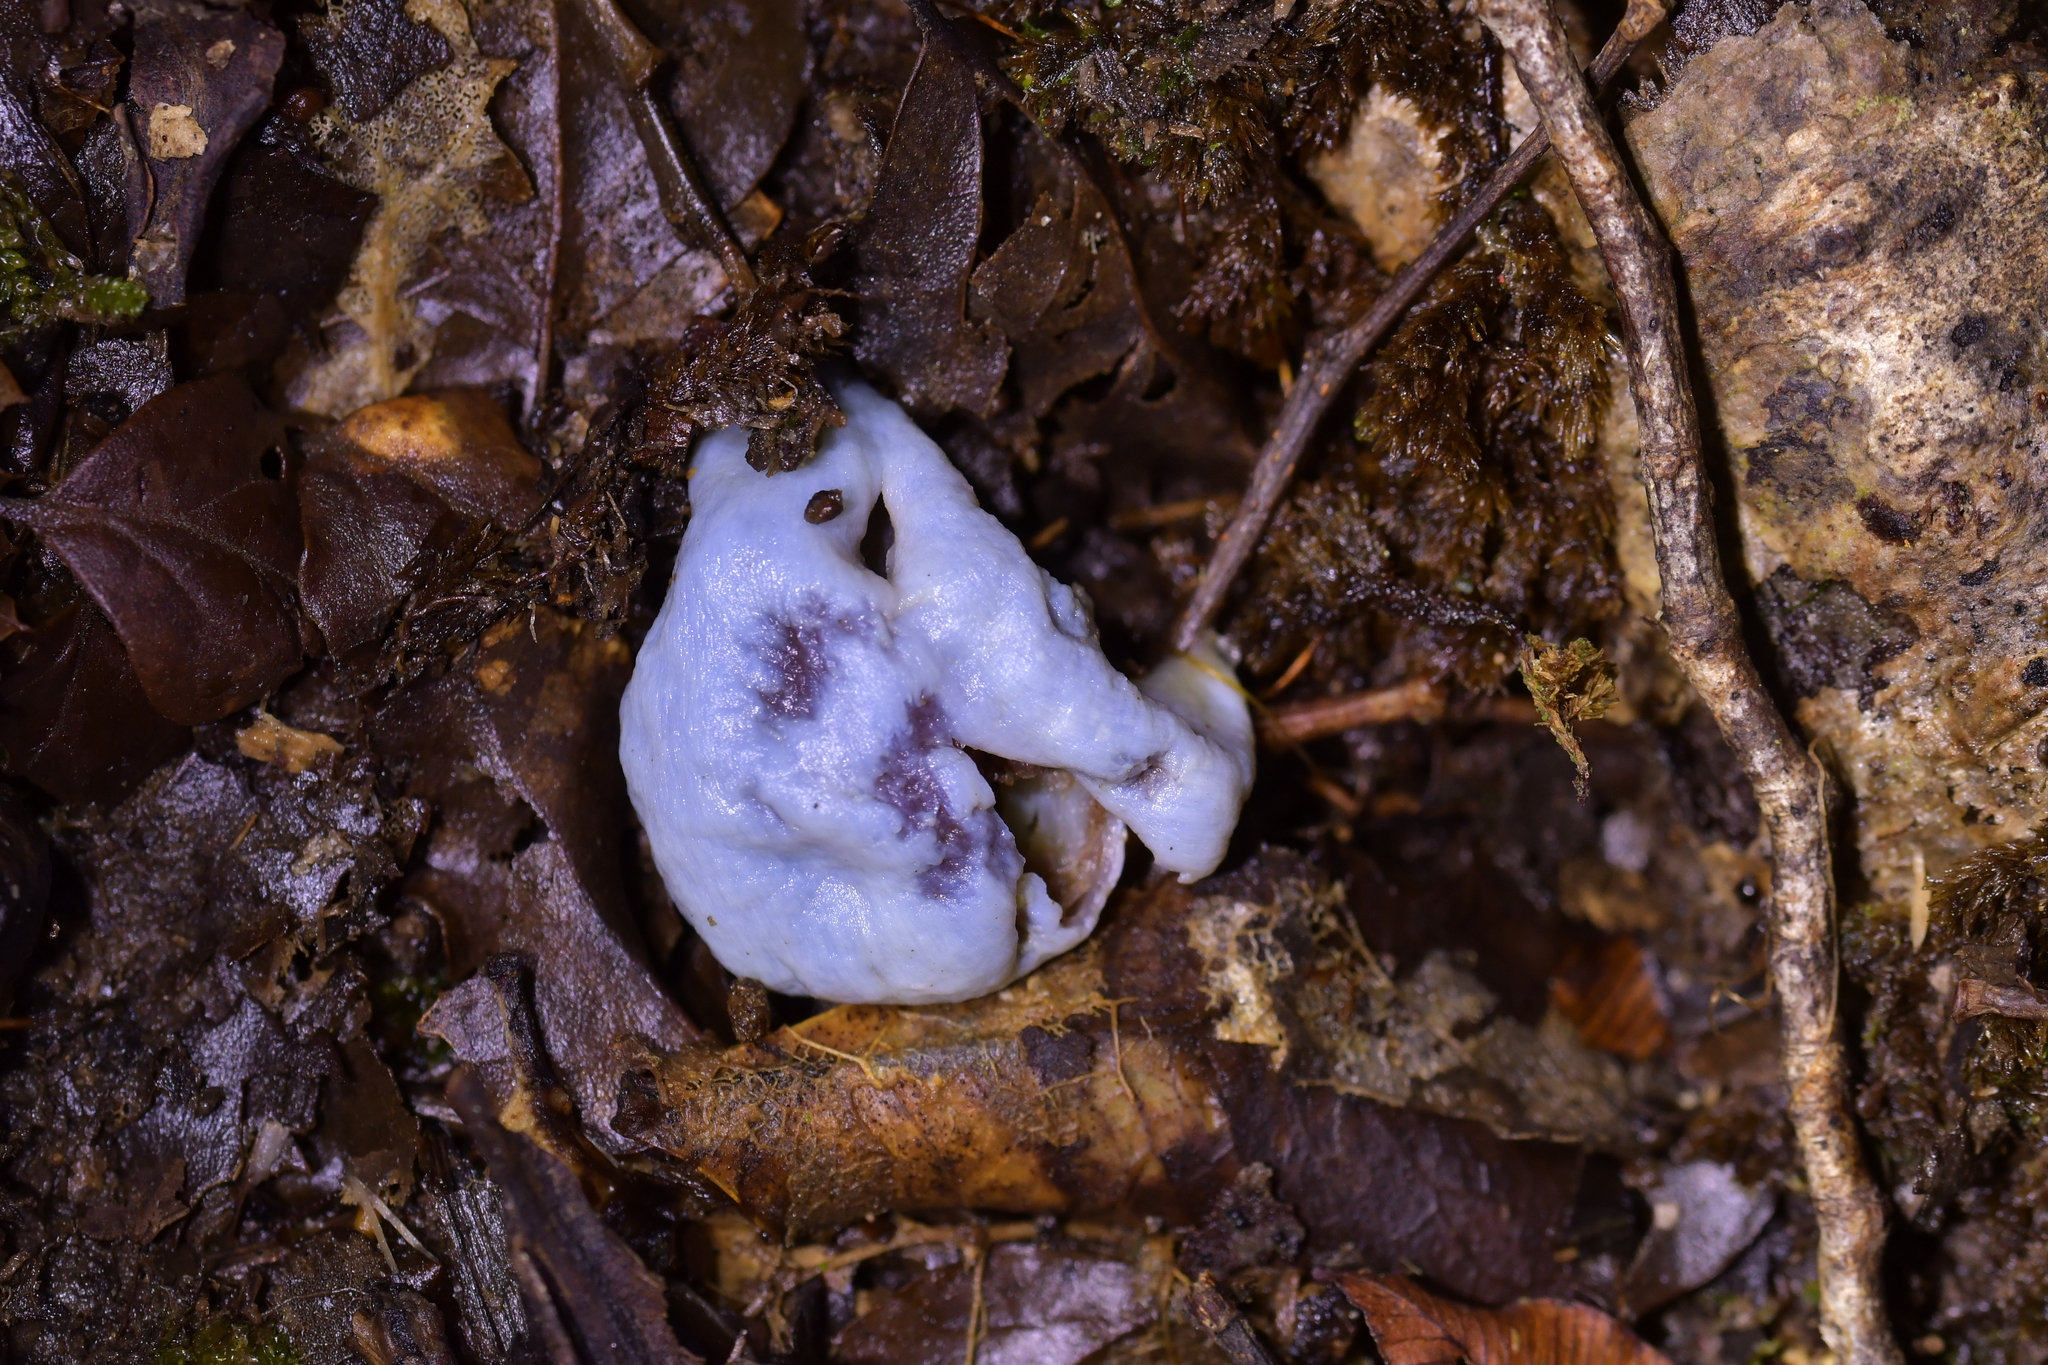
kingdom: Fungi
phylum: Basidiomycota
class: Agaricomycetes
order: Agaricales
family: Agaricaceae
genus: Clavogaster
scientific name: Clavogaster virescens
